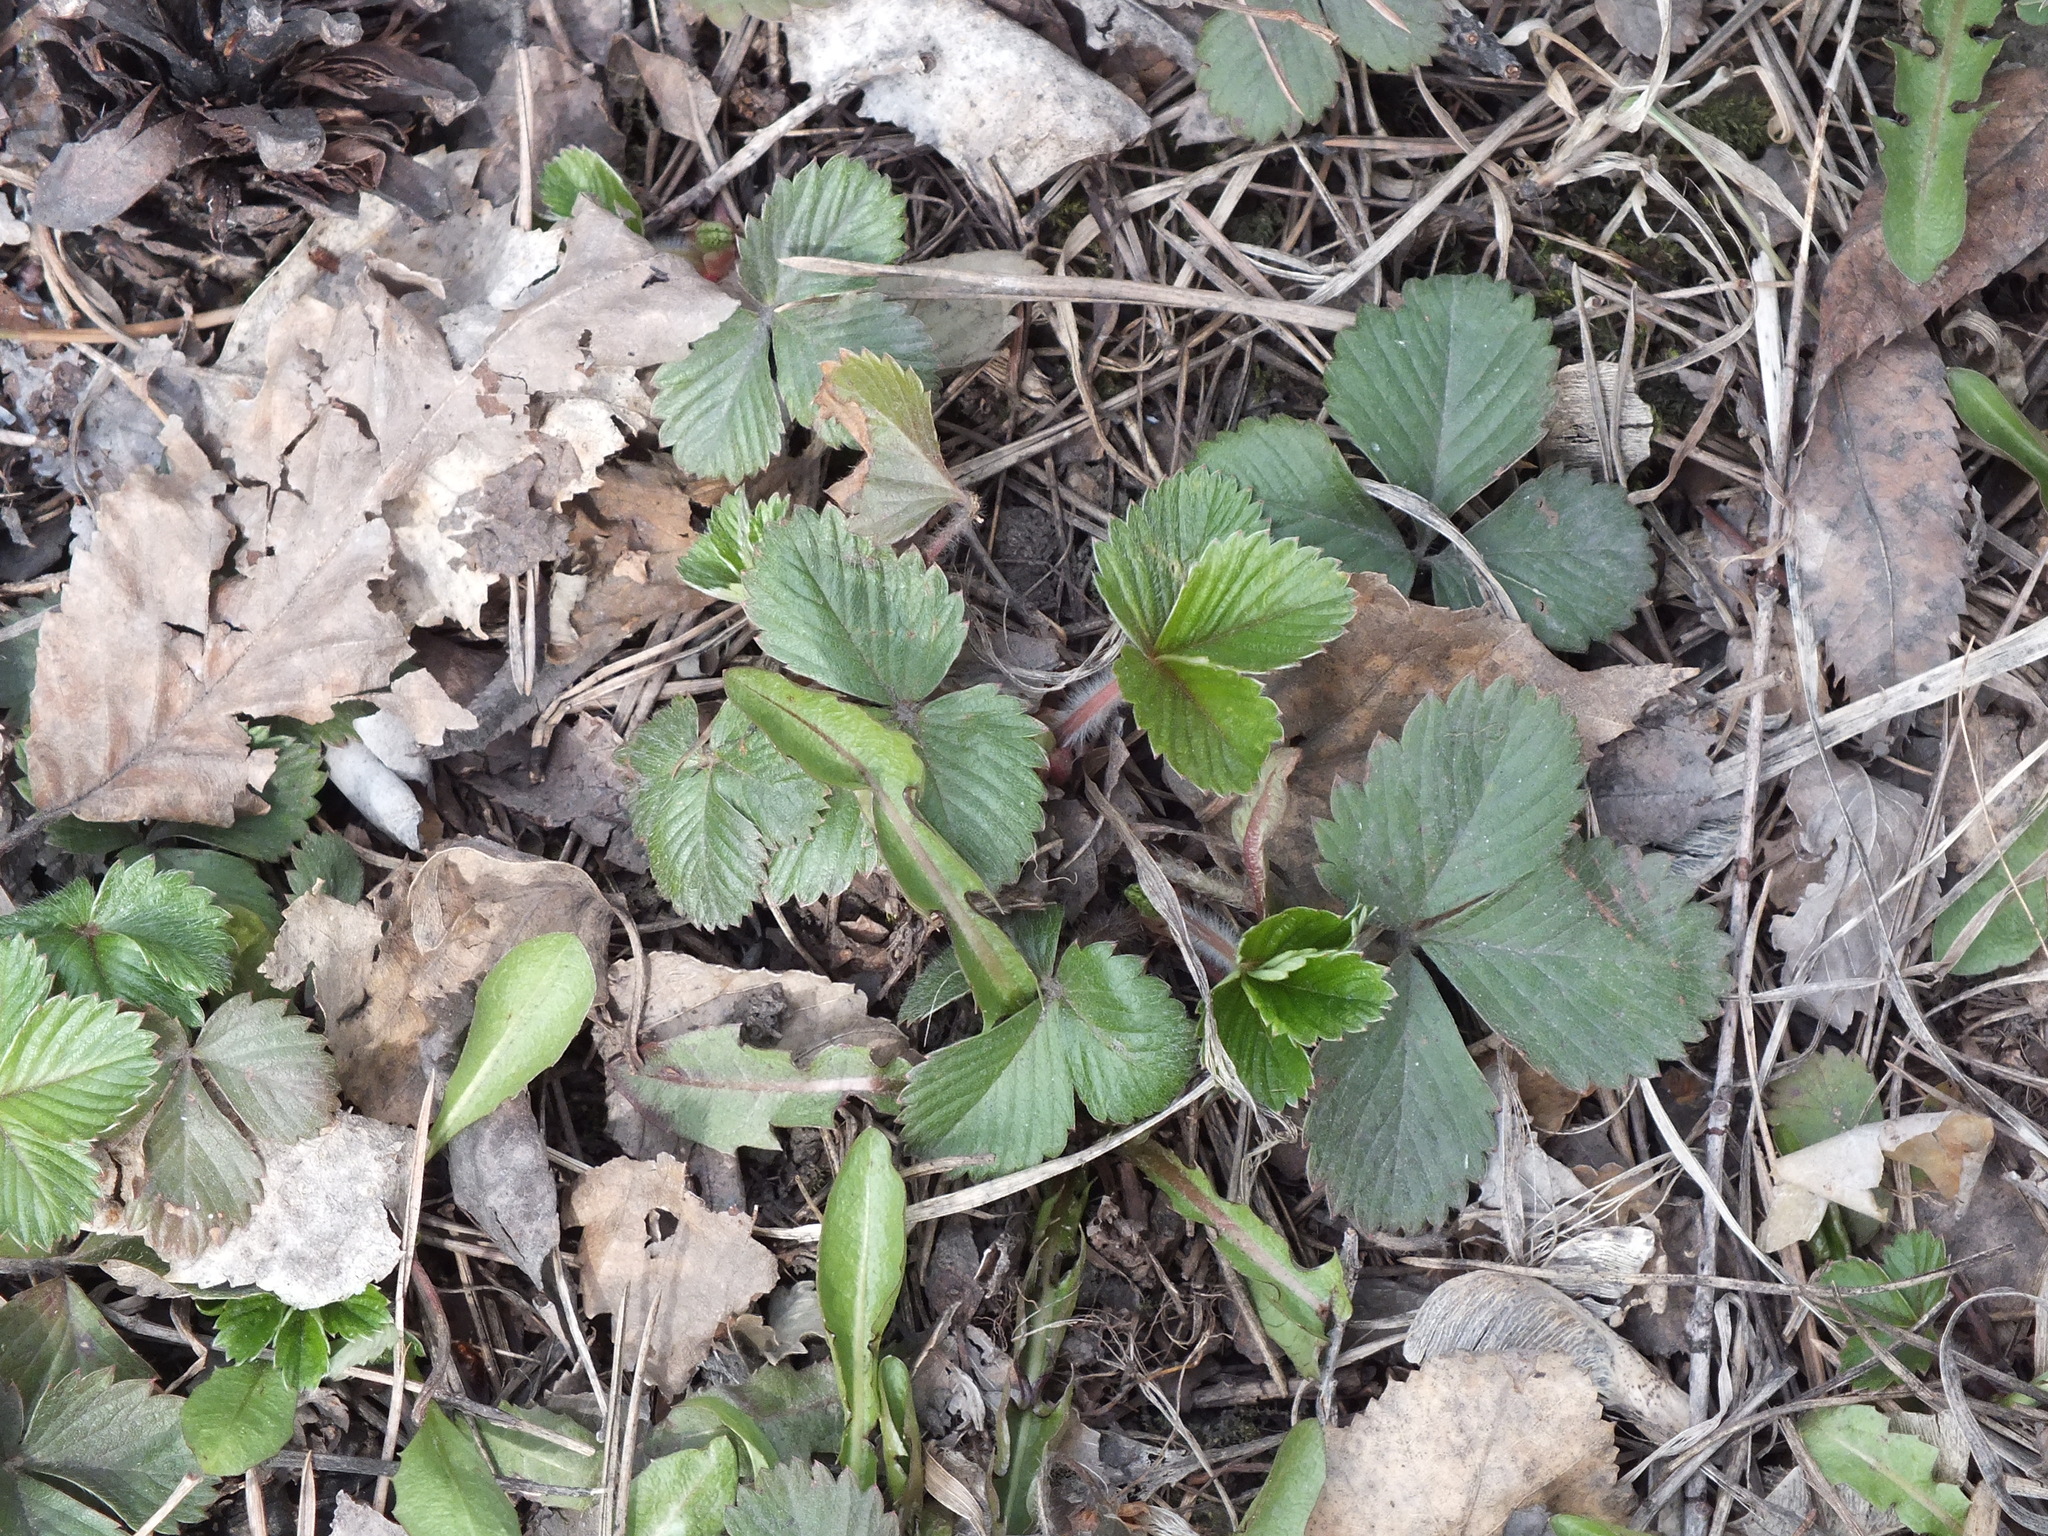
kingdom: Plantae
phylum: Tracheophyta
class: Magnoliopsida
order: Rosales
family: Rosaceae
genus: Fragaria
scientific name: Fragaria vesca
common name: Wild strawberry
